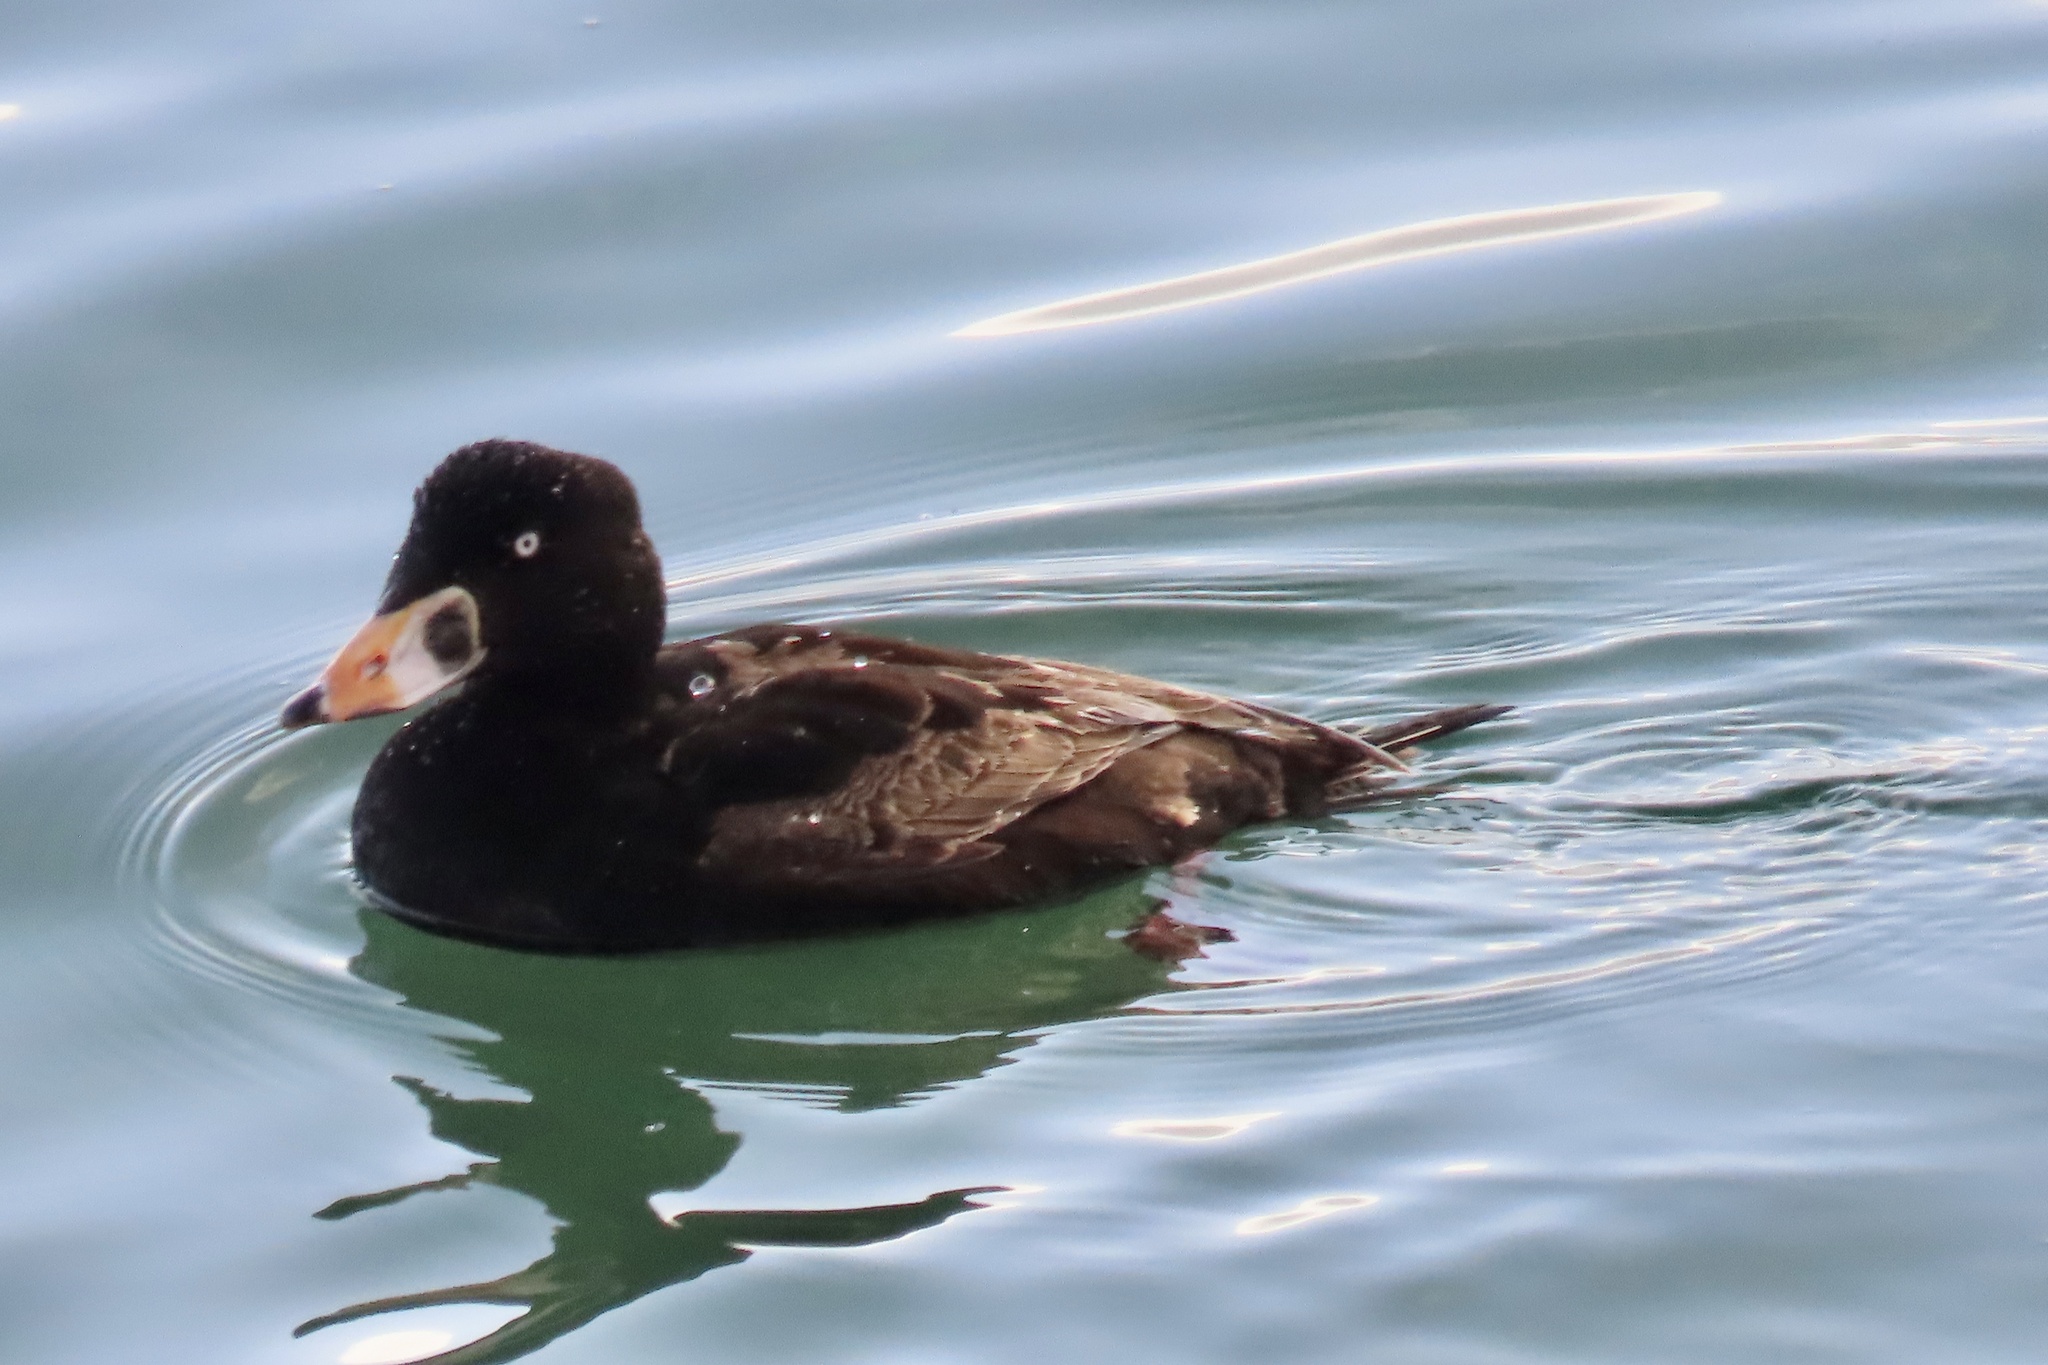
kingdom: Animalia
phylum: Chordata
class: Aves
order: Anseriformes
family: Anatidae
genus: Melanitta
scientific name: Melanitta perspicillata
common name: Surf scoter
